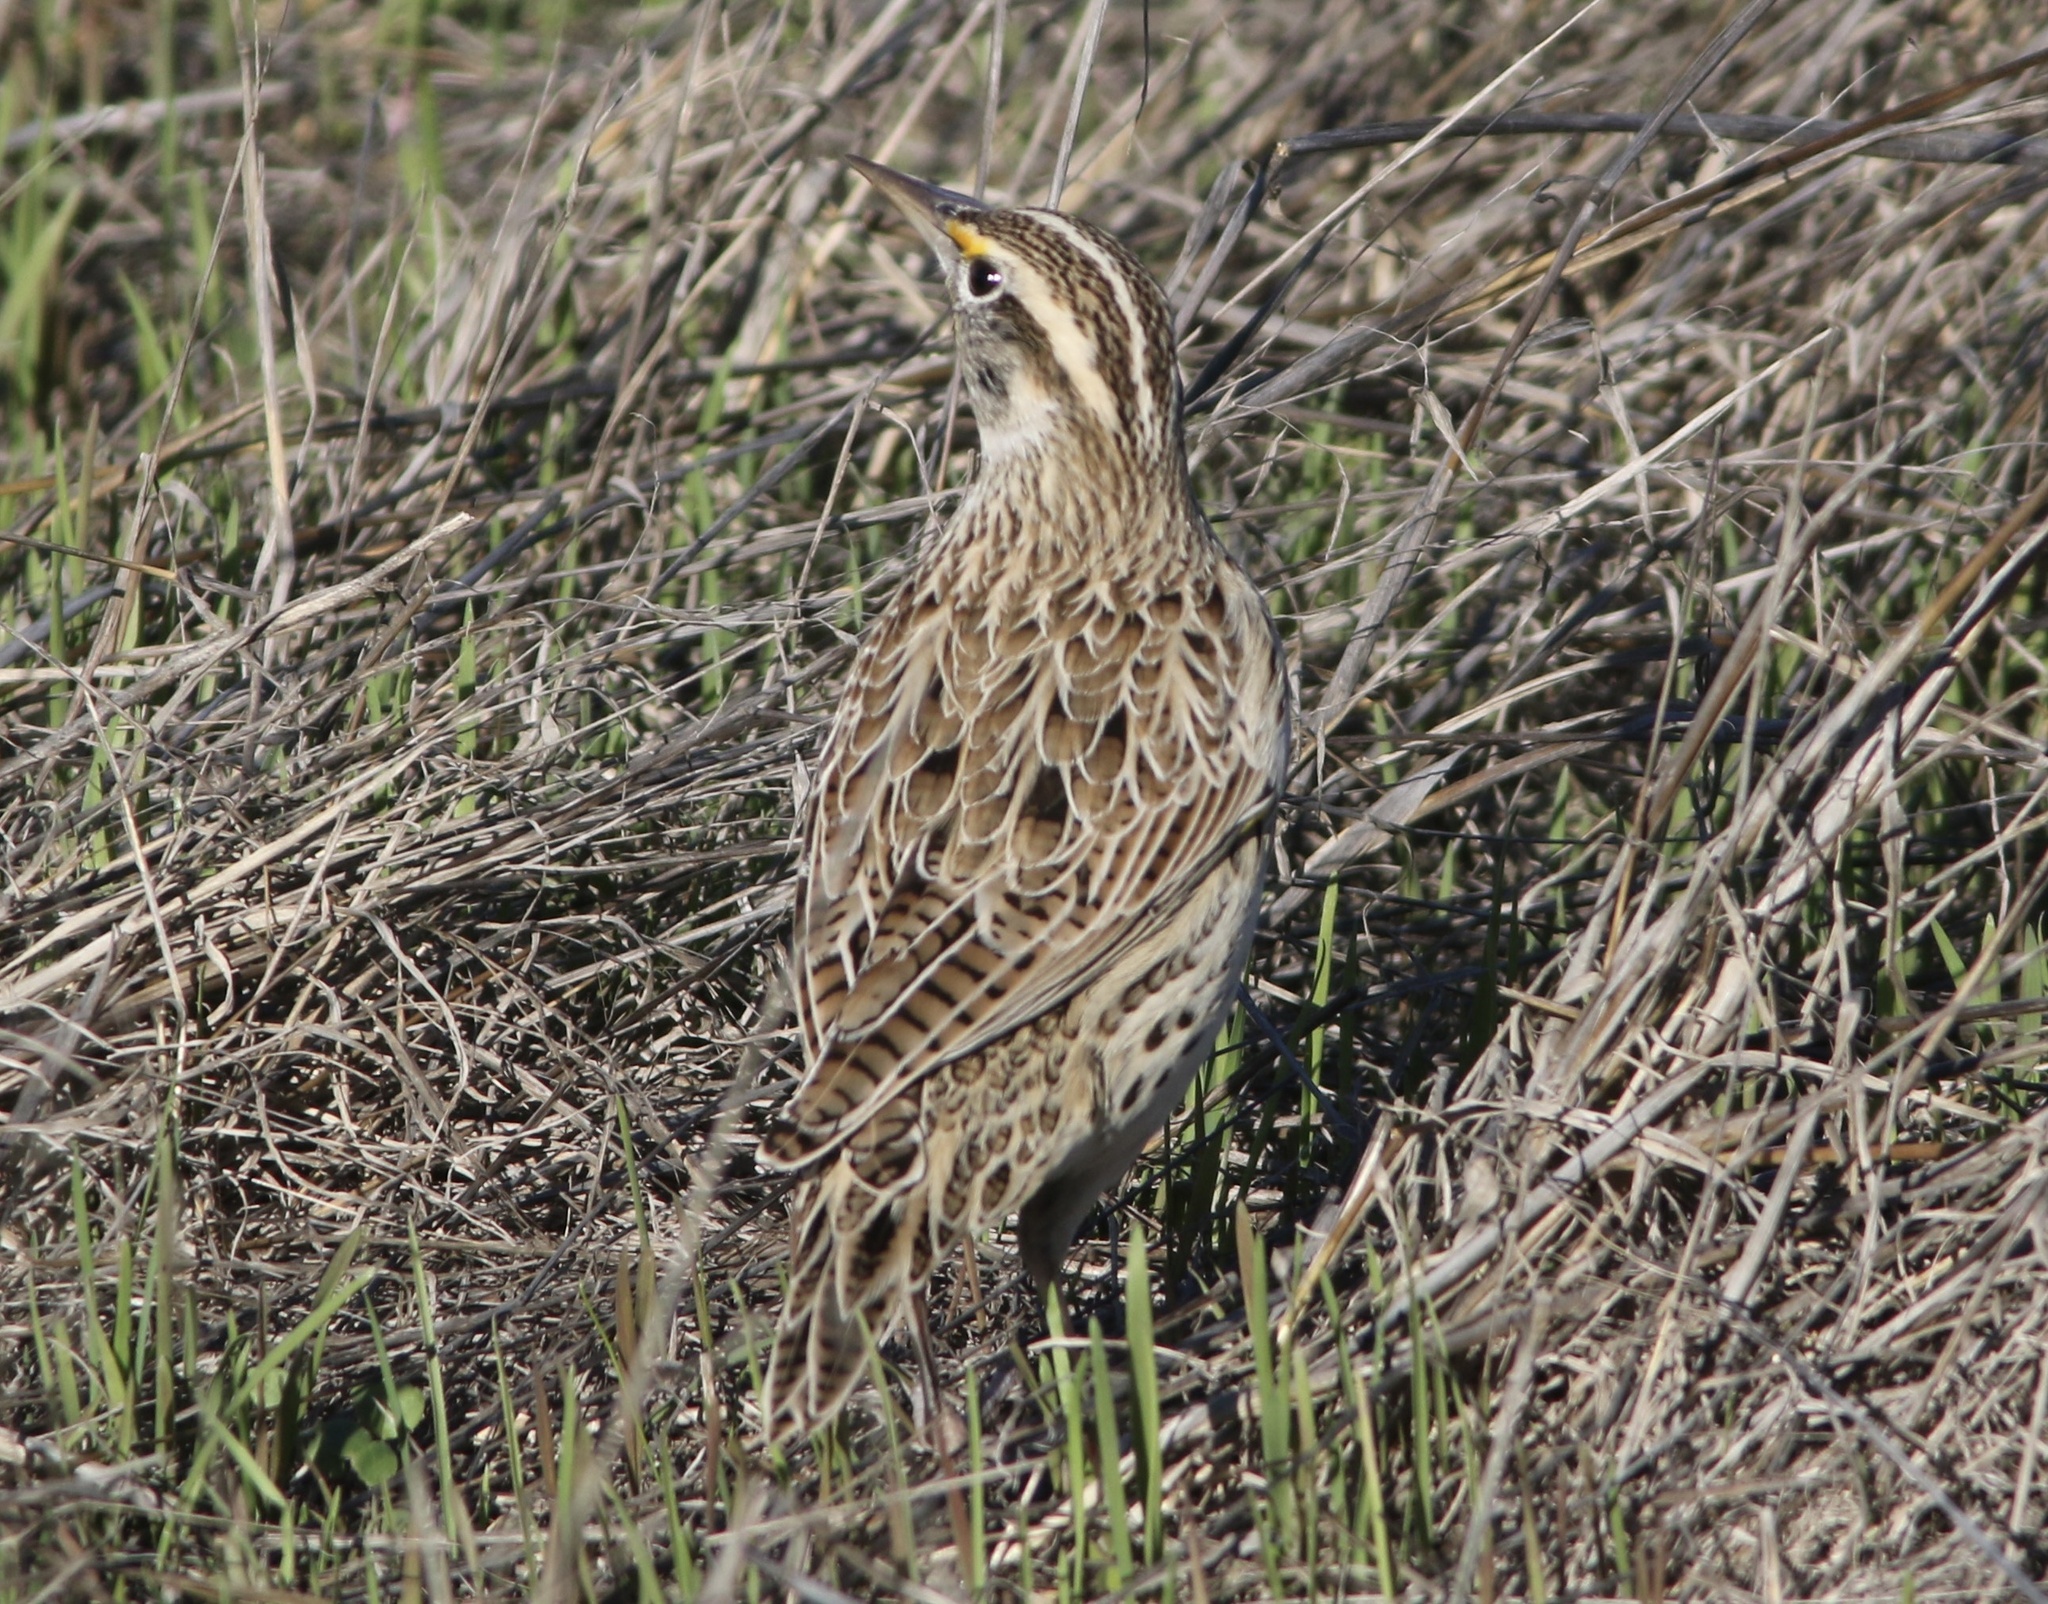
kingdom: Animalia
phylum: Chordata
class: Aves
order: Passeriformes
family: Icteridae
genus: Sturnella
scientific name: Sturnella neglecta
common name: Western meadowlark
